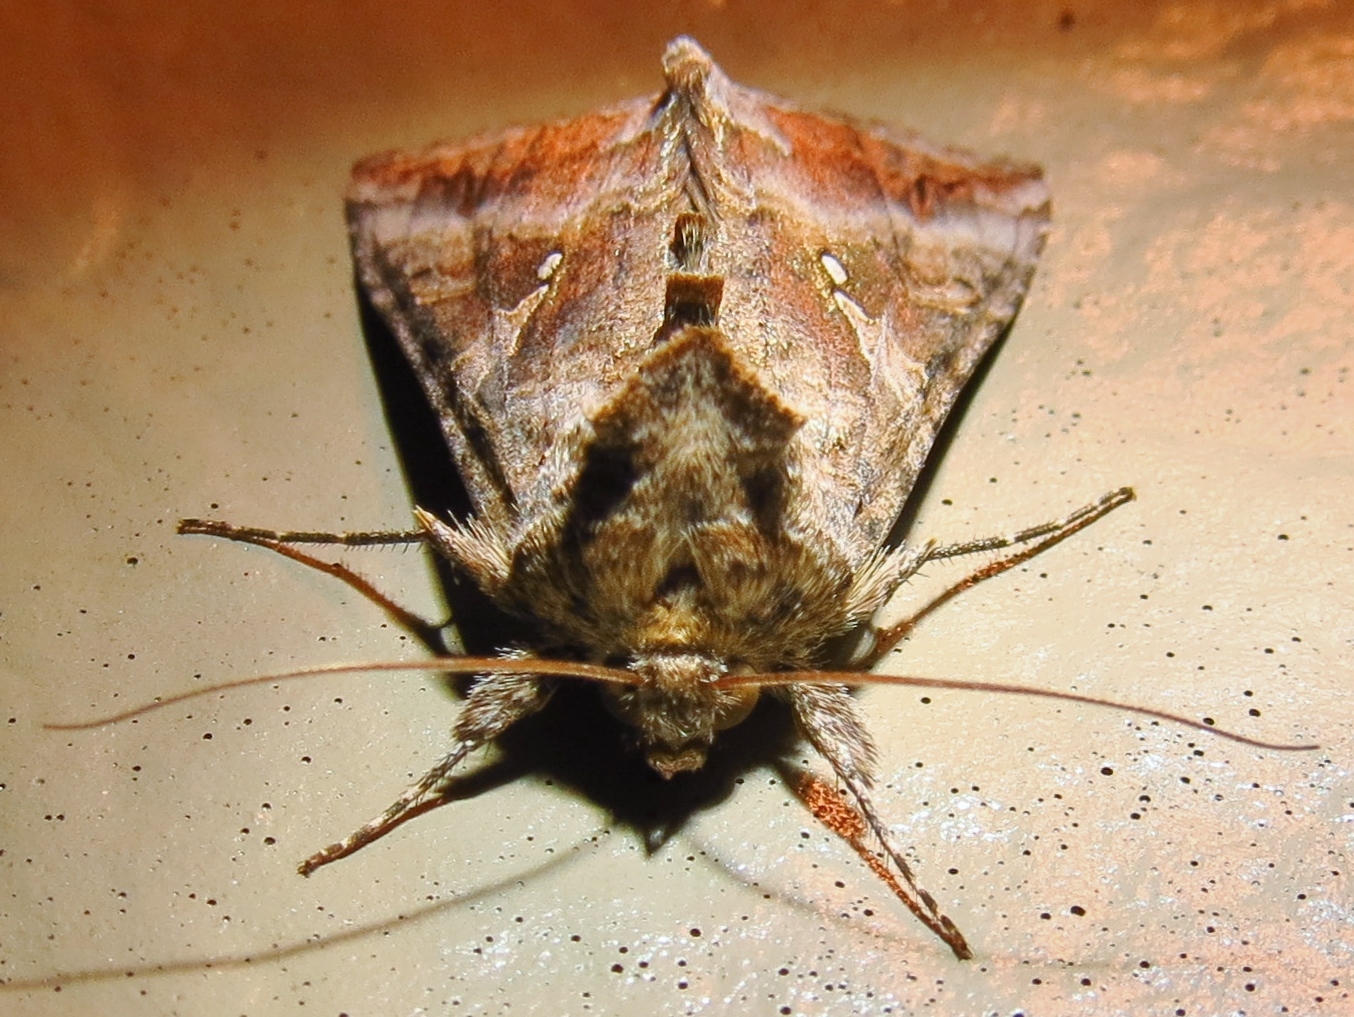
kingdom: Animalia
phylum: Arthropoda
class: Insecta
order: Lepidoptera
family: Noctuidae
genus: Rachiplusia
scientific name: Rachiplusia ou
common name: Gray looper moth
